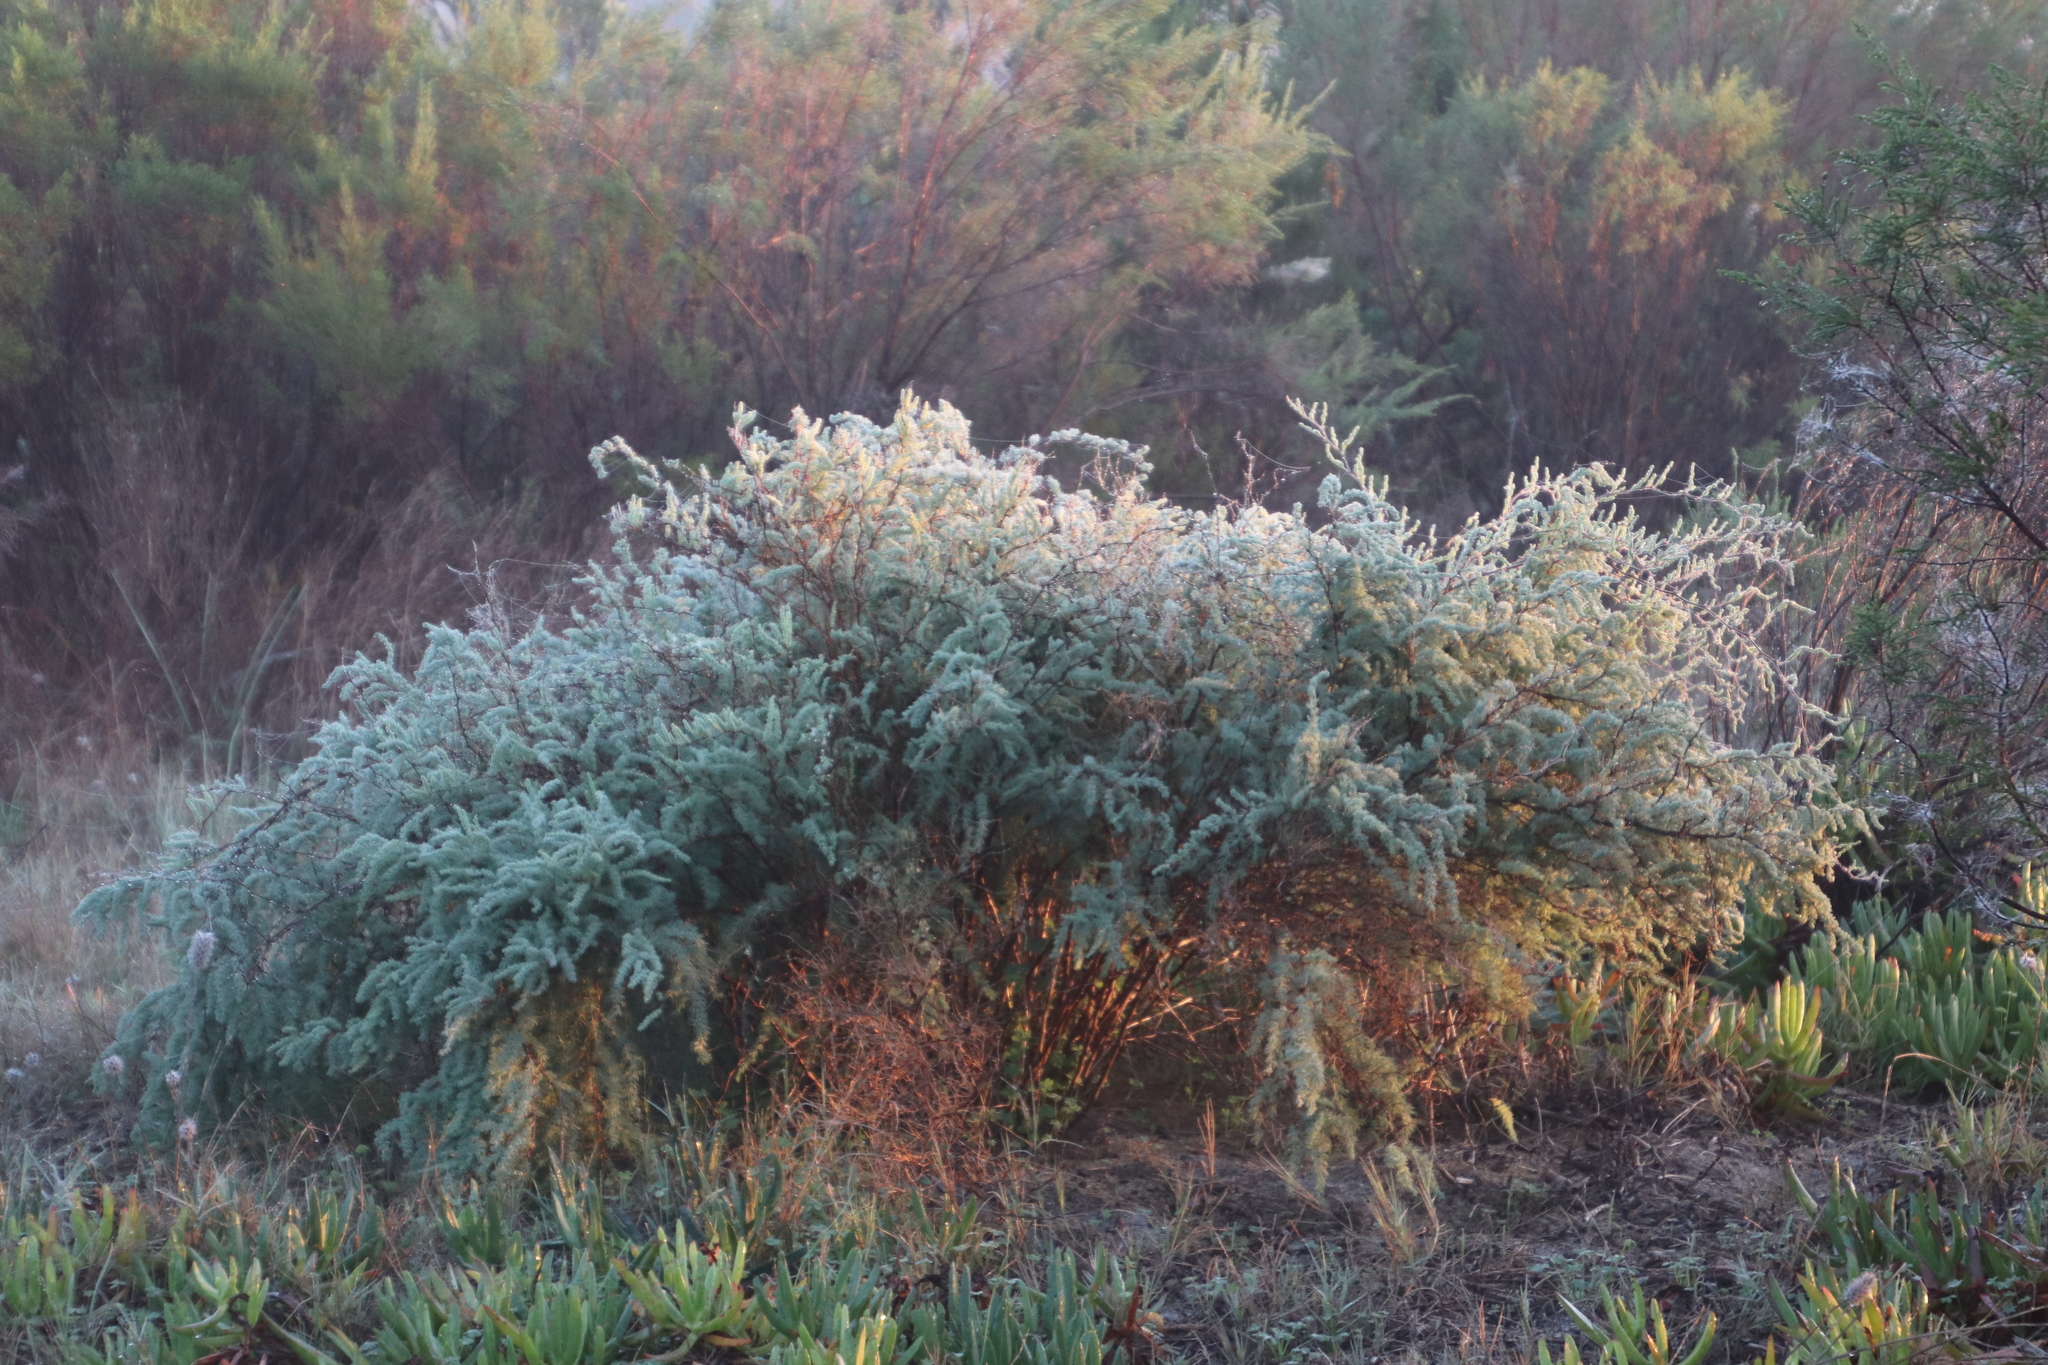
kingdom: Plantae
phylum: Tracheophyta
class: Liliopsida
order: Asparagales
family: Asparagaceae
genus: Asparagus
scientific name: Asparagus rubicundus
